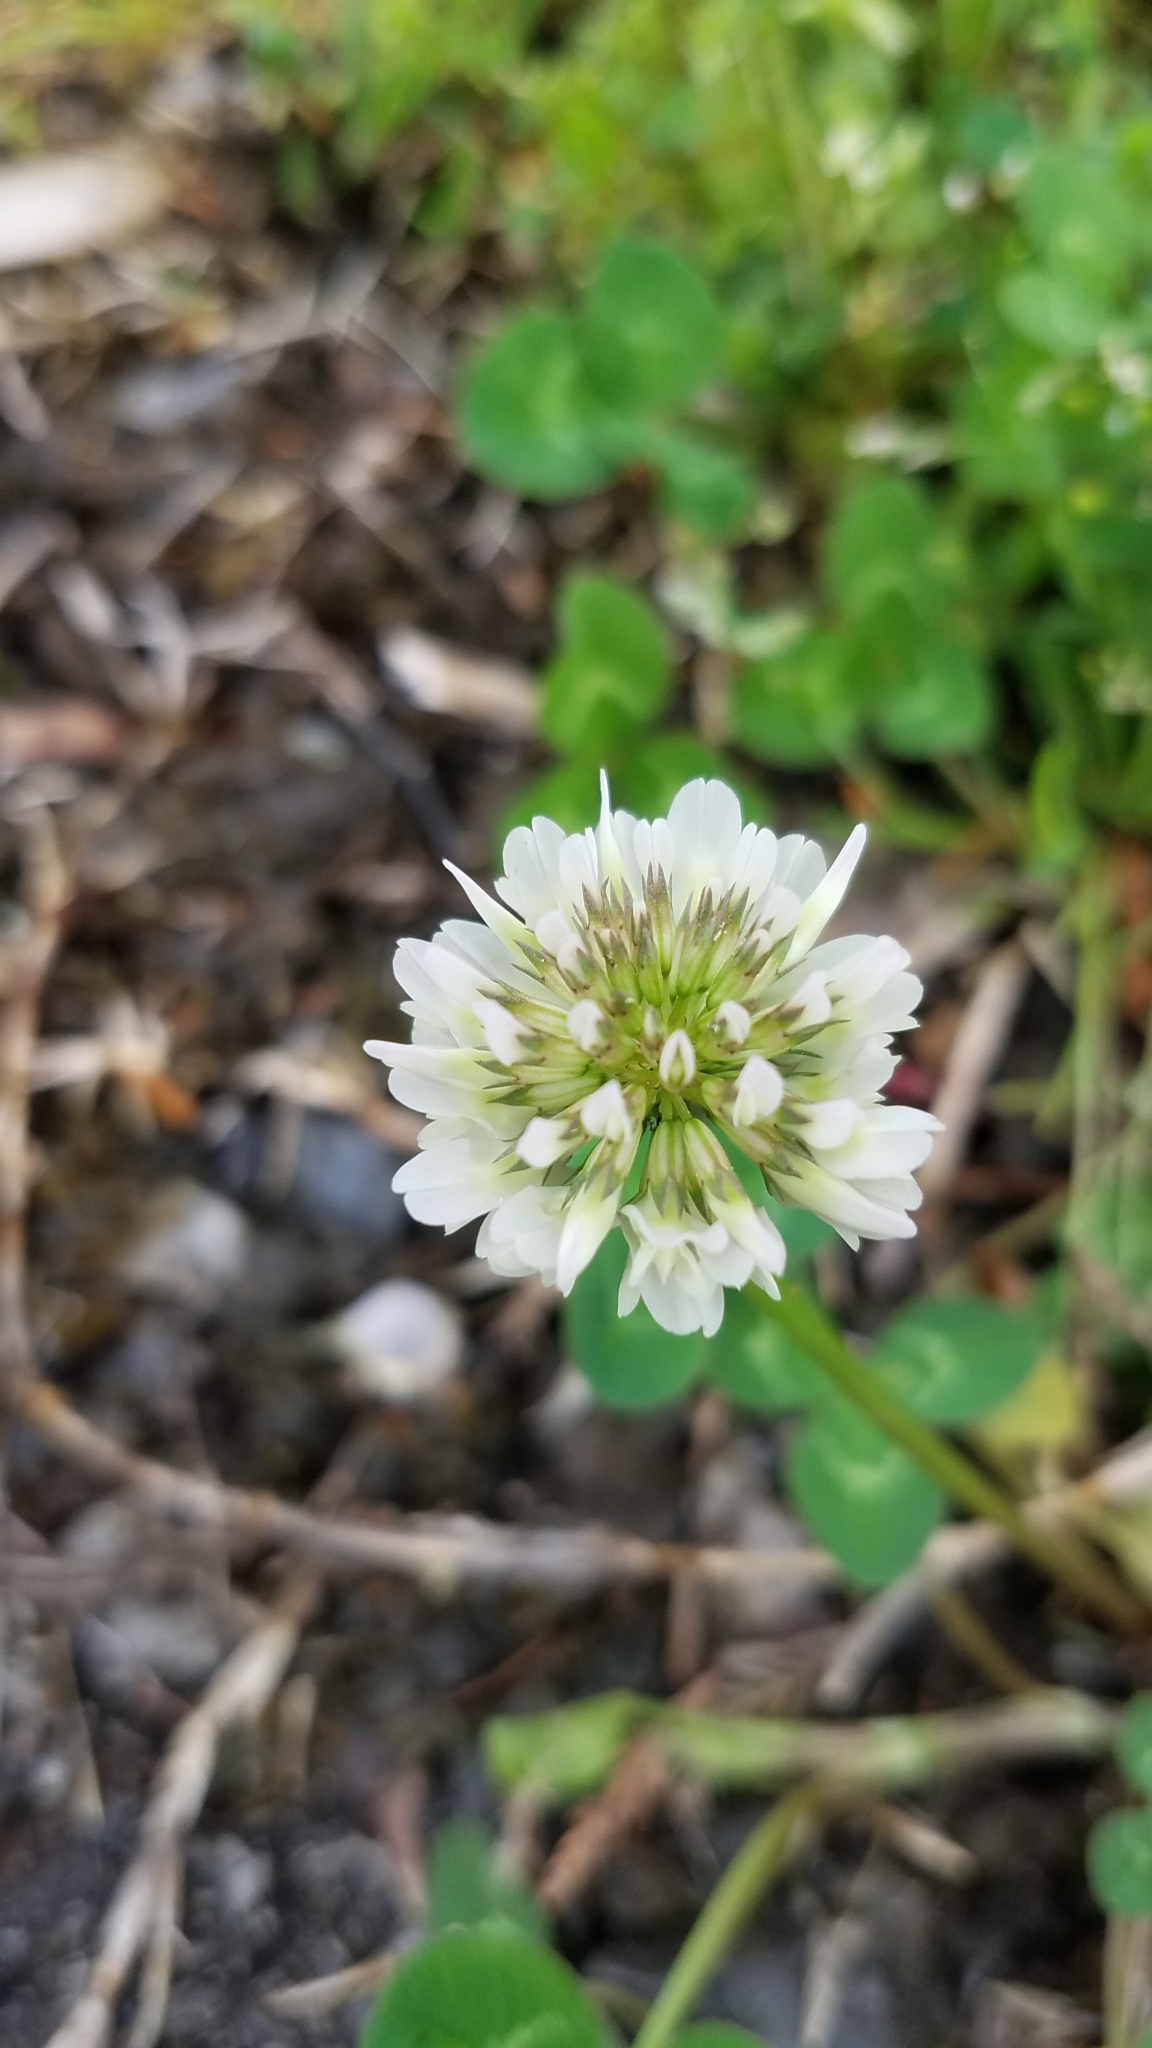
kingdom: Plantae
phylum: Tracheophyta
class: Magnoliopsida
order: Fabales
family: Fabaceae
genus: Trifolium
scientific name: Trifolium repens
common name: White clover
